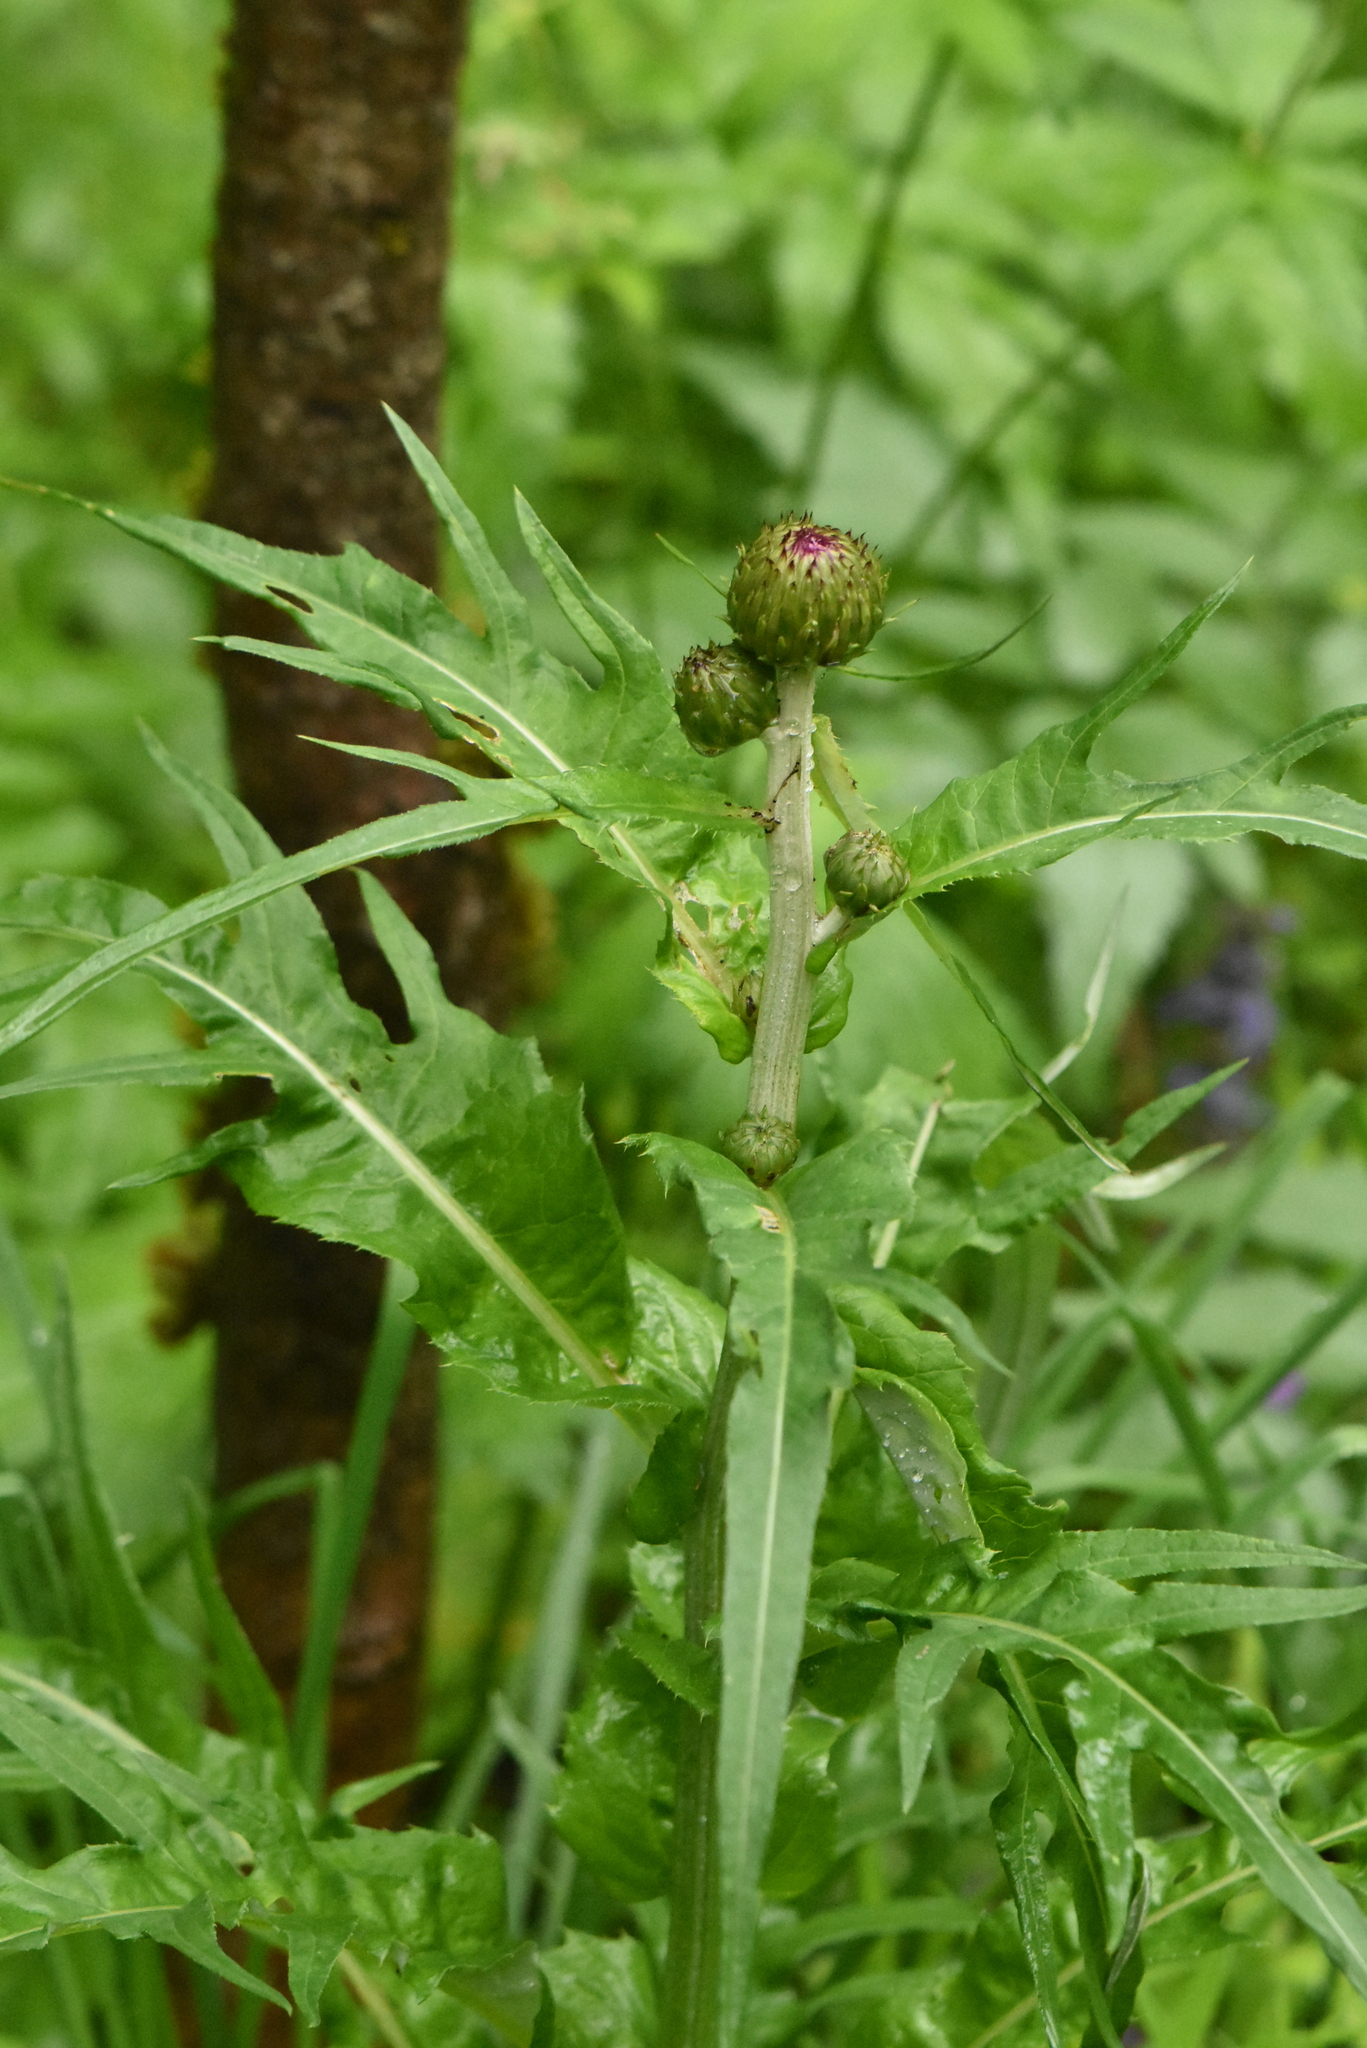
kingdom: Plantae
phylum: Tracheophyta
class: Magnoliopsida
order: Asterales
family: Asteraceae
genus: Cirsium
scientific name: Cirsium heterophyllum
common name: Melancholy thistle
